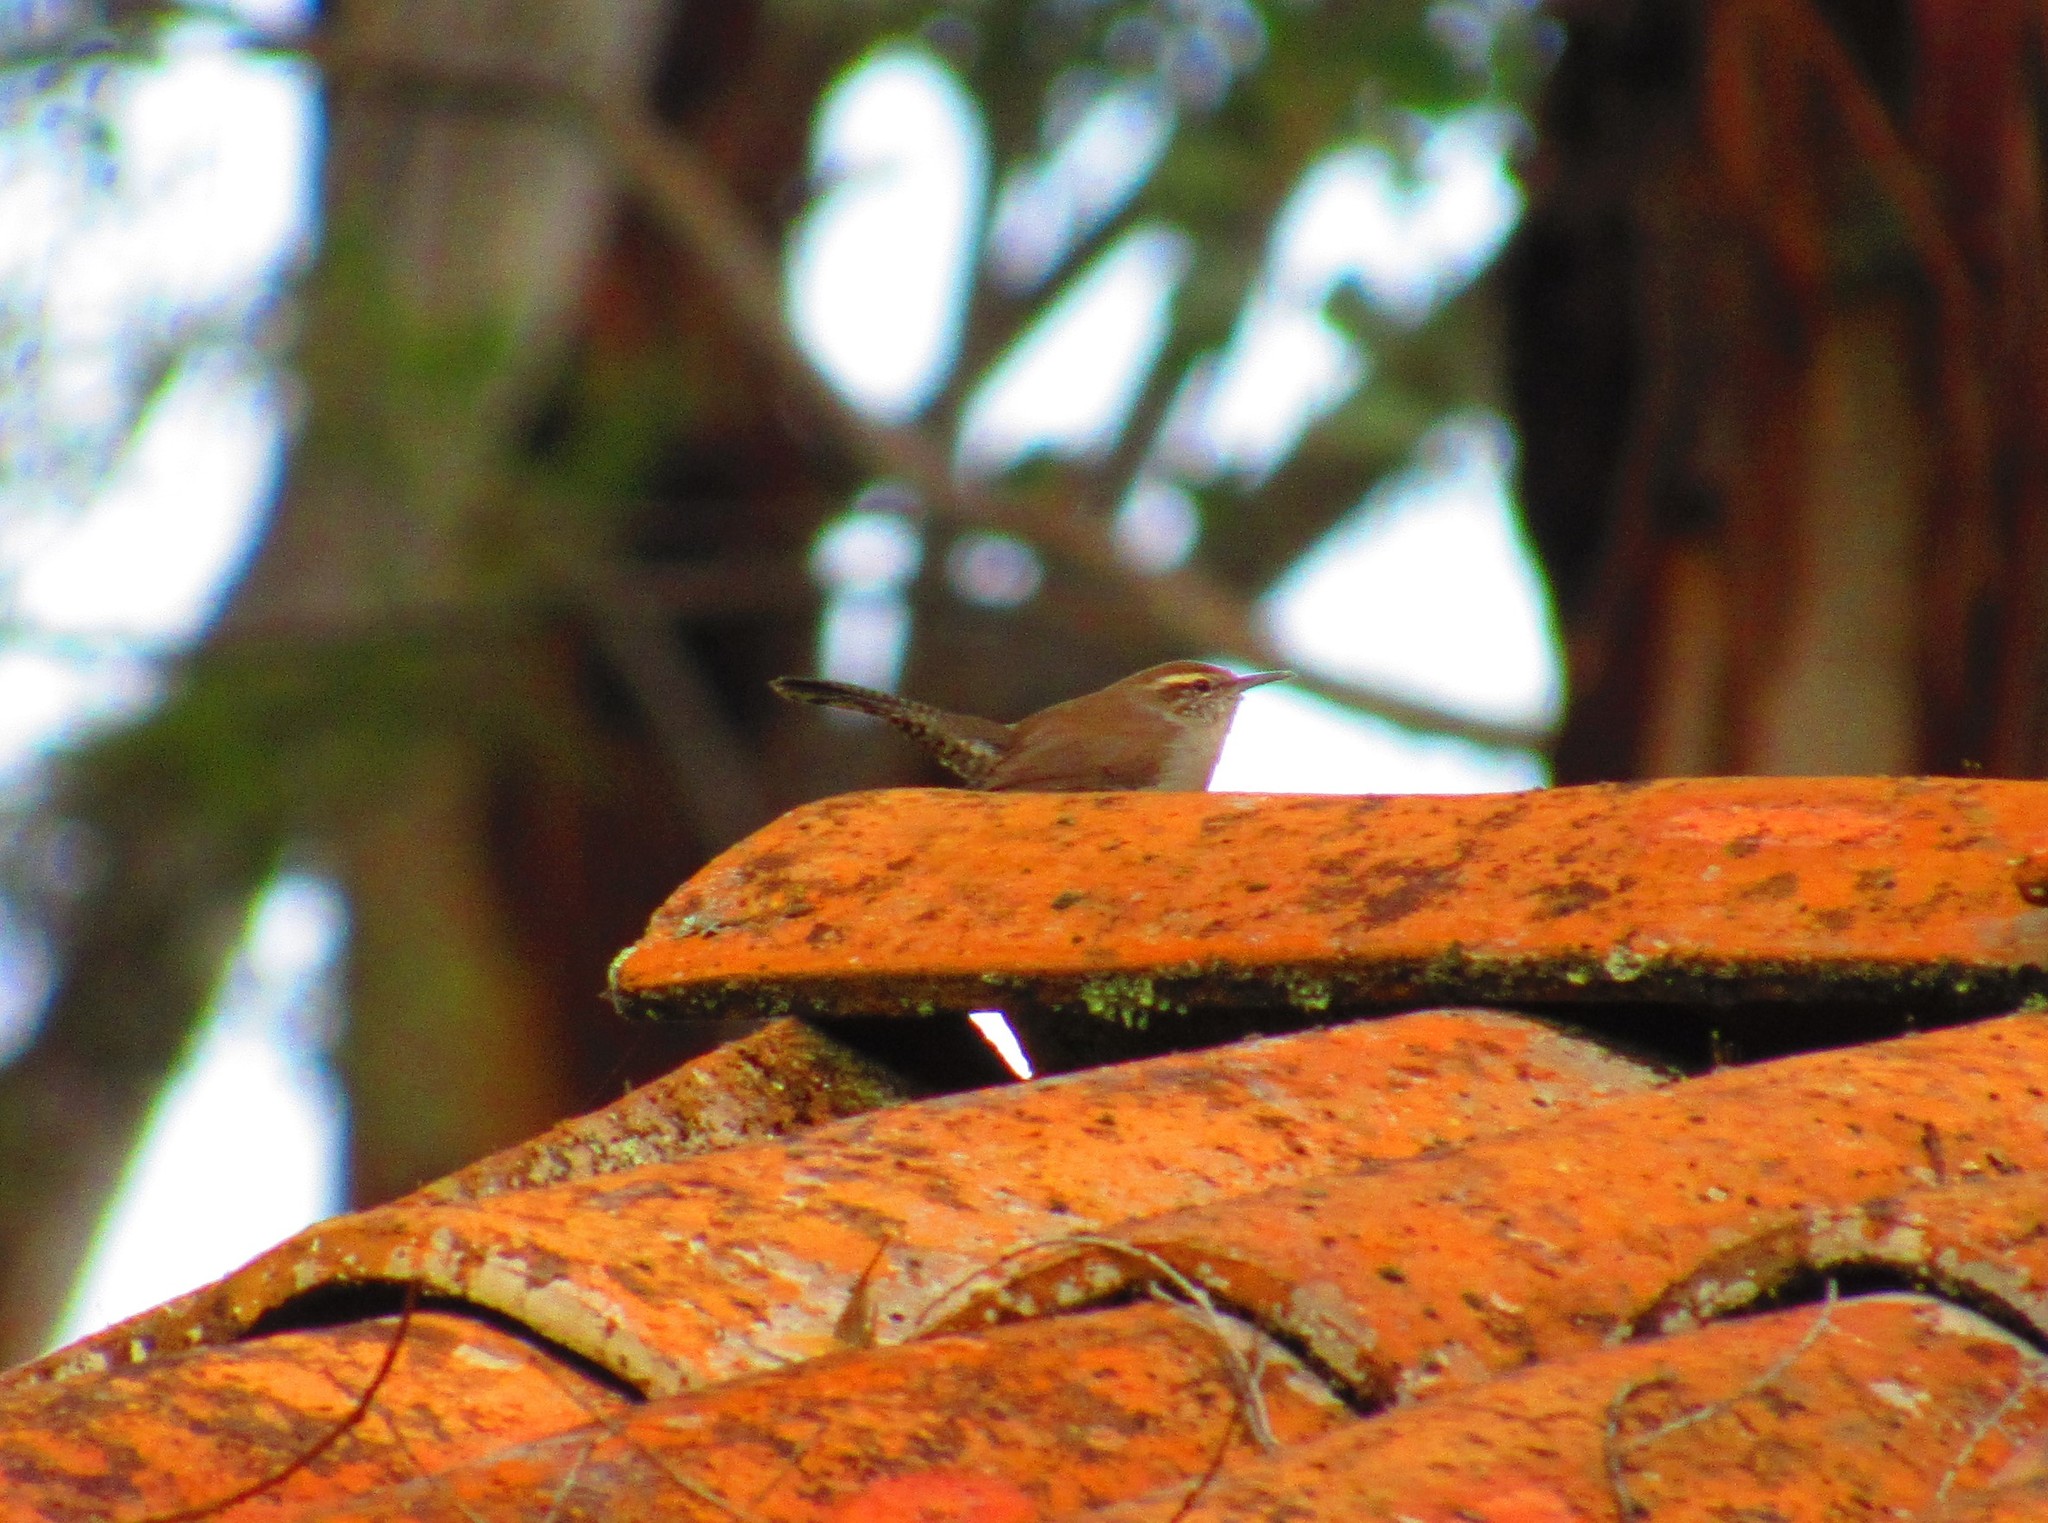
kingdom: Animalia
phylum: Chordata
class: Aves
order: Passeriformes
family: Troglodytidae
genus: Thryomanes
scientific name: Thryomanes bewickii
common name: Bewick's wren
